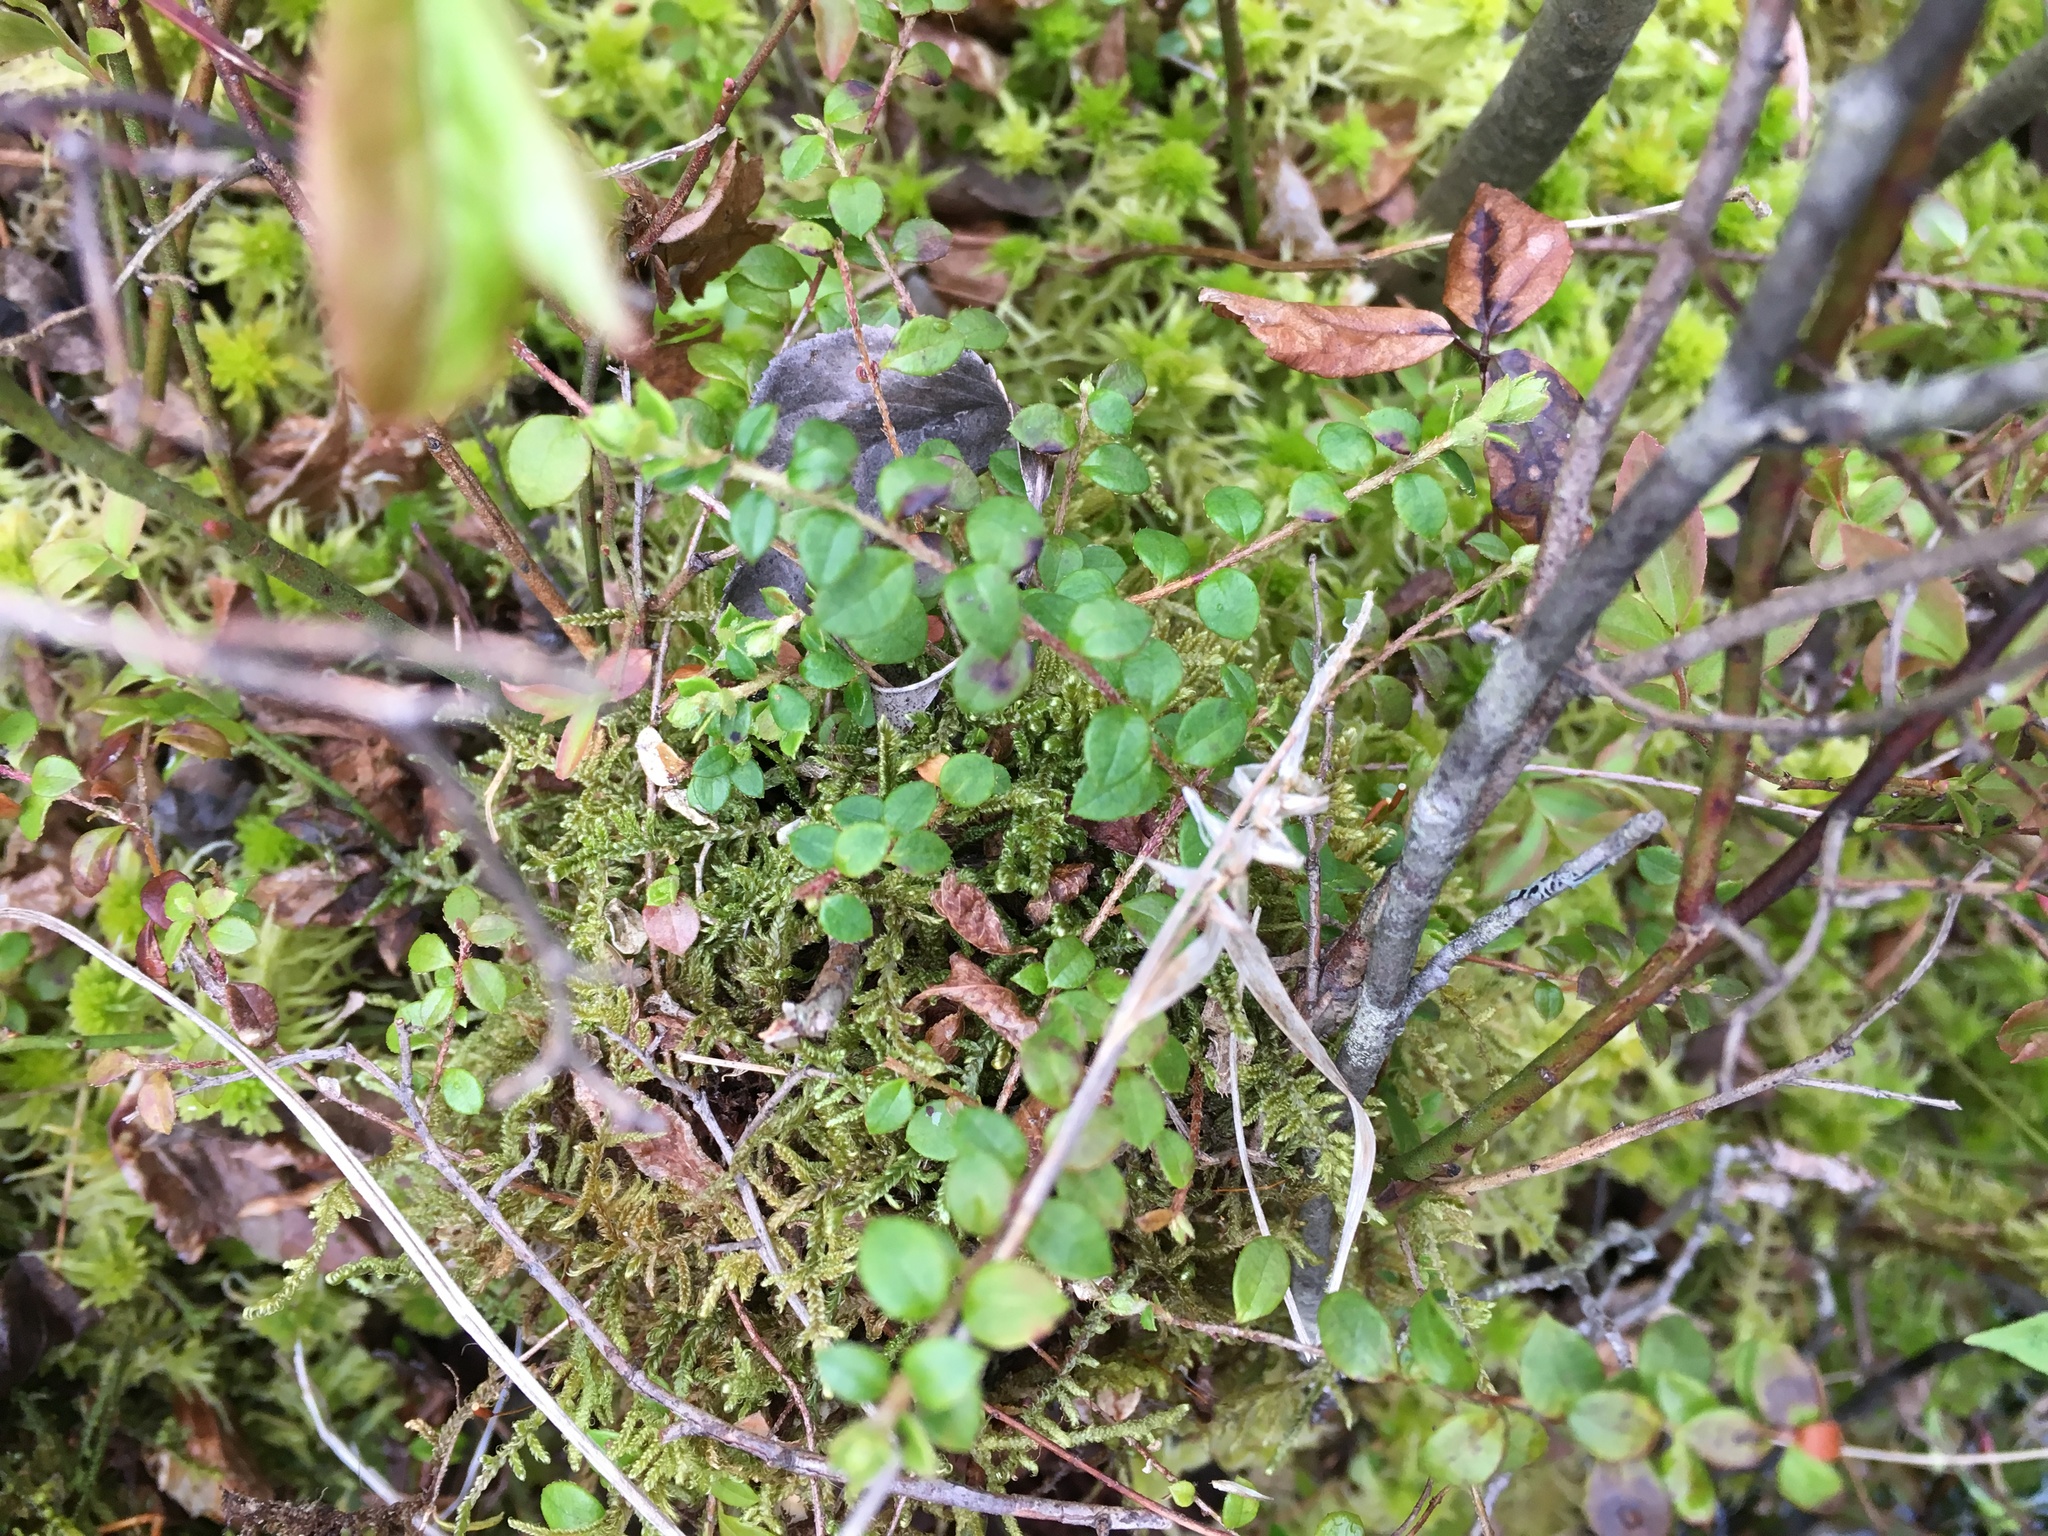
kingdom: Plantae
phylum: Tracheophyta
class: Magnoliopsida
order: Ericales
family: Ericaceae
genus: Gaultheria
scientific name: Gaultheria hispidula
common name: Cancer wintergreen
